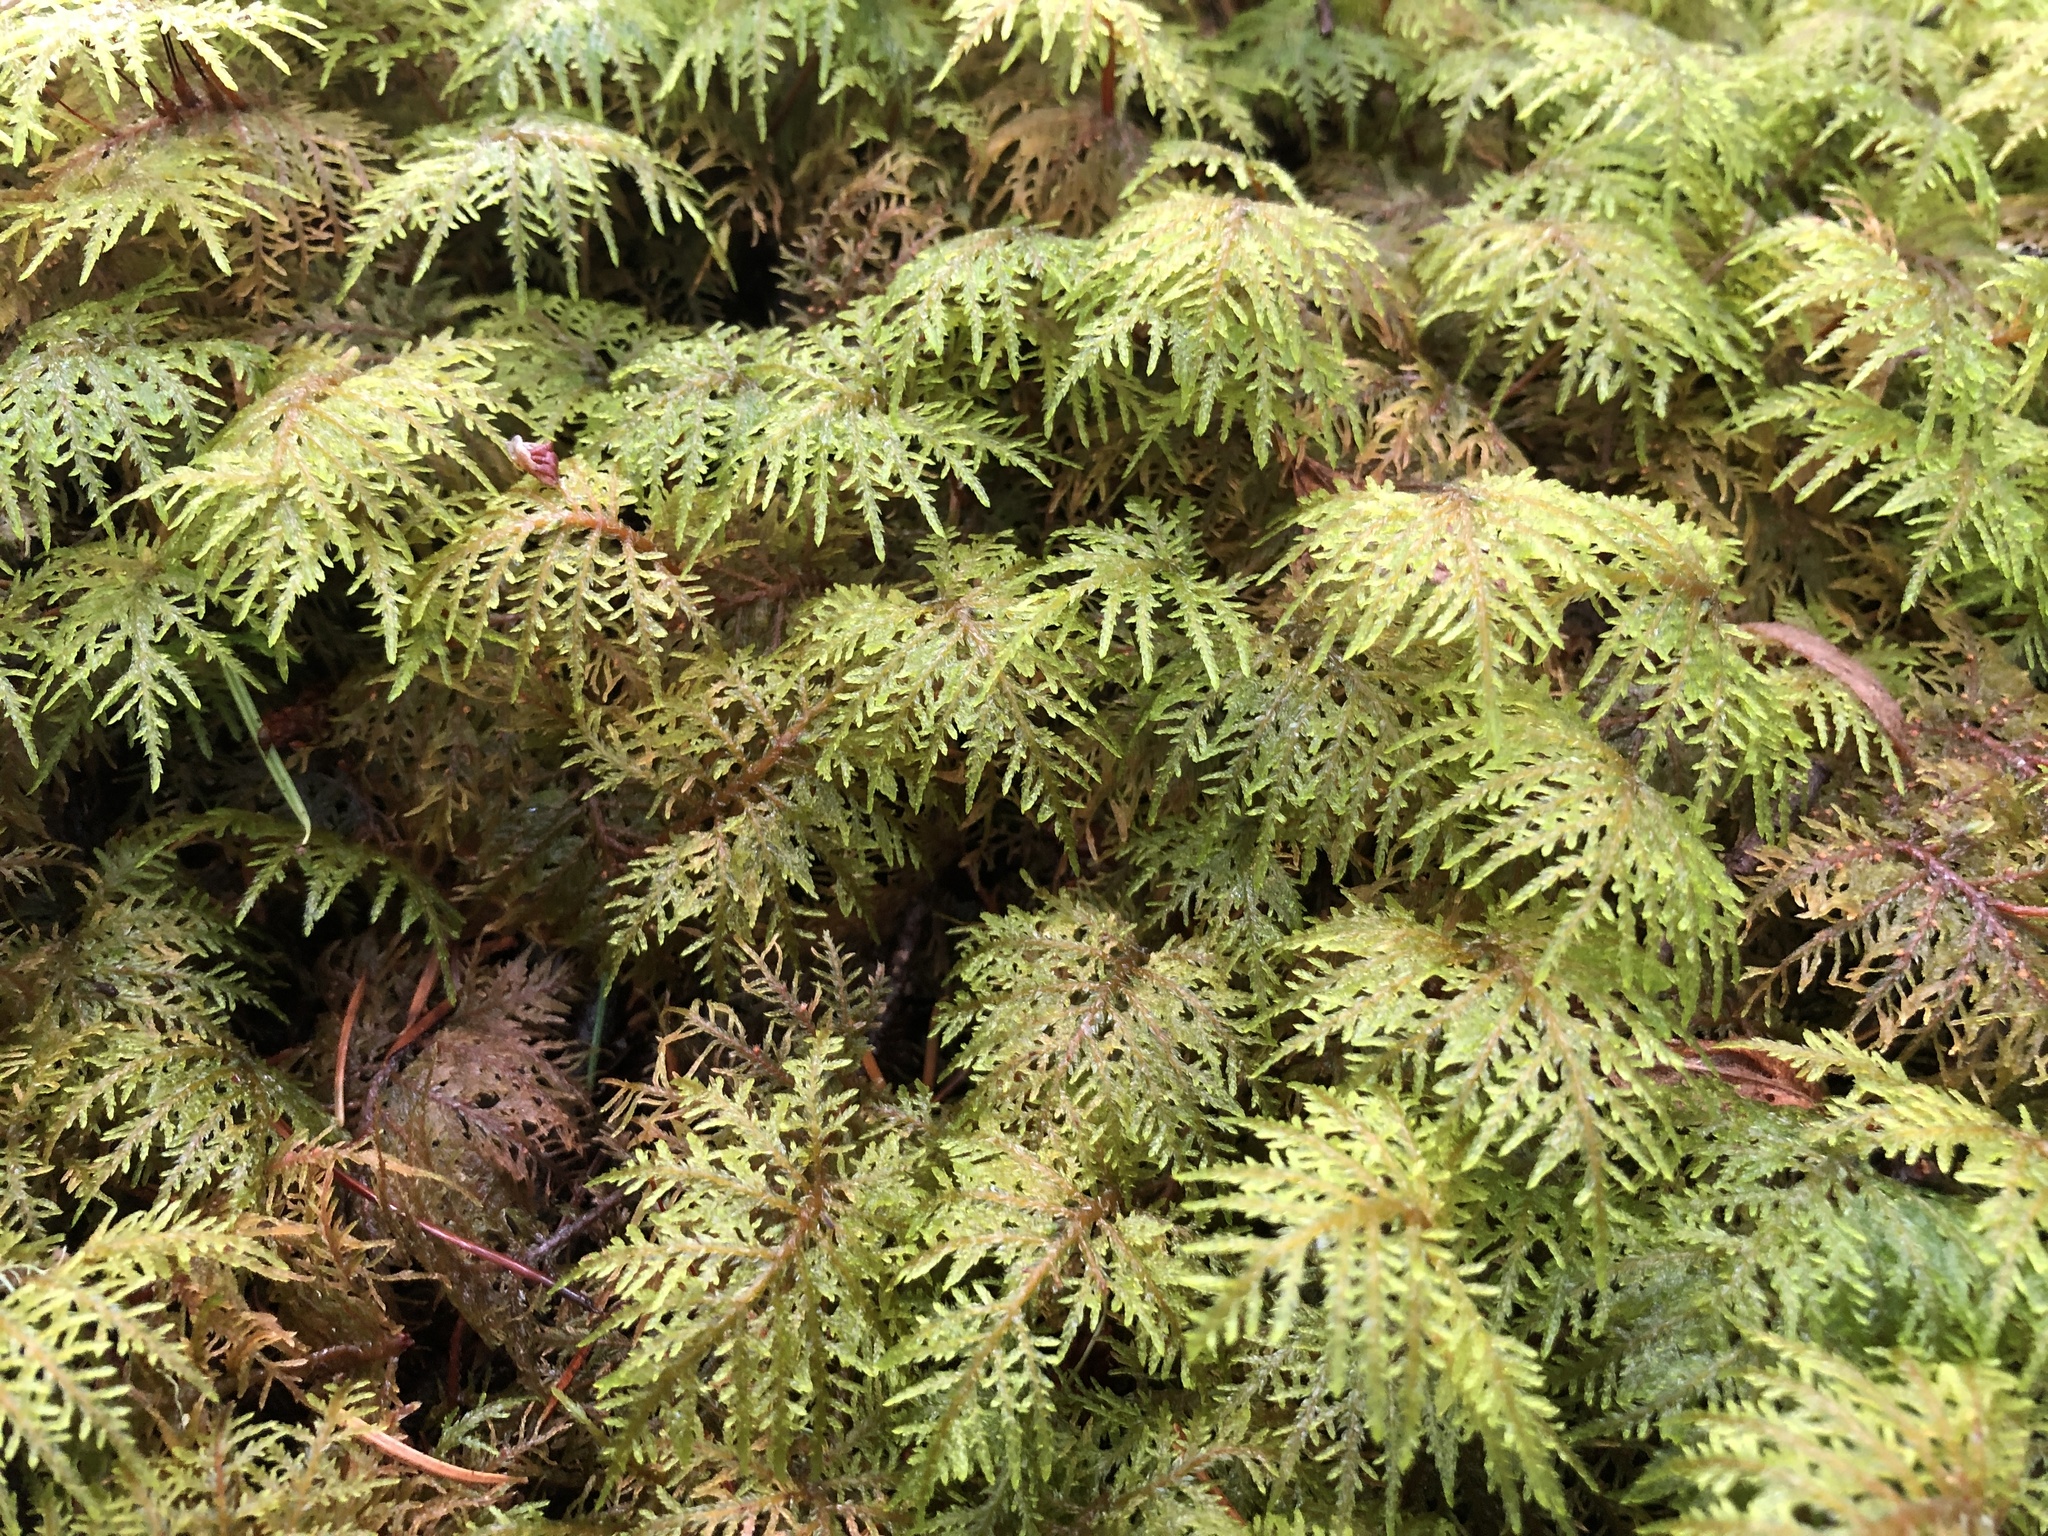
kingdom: Plantae
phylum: Bryophyta
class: Bryopsida
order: Hypnales
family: Hylocomiaceae
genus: Hylocomium
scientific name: Hylocomium splendens
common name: Stairstep moss
